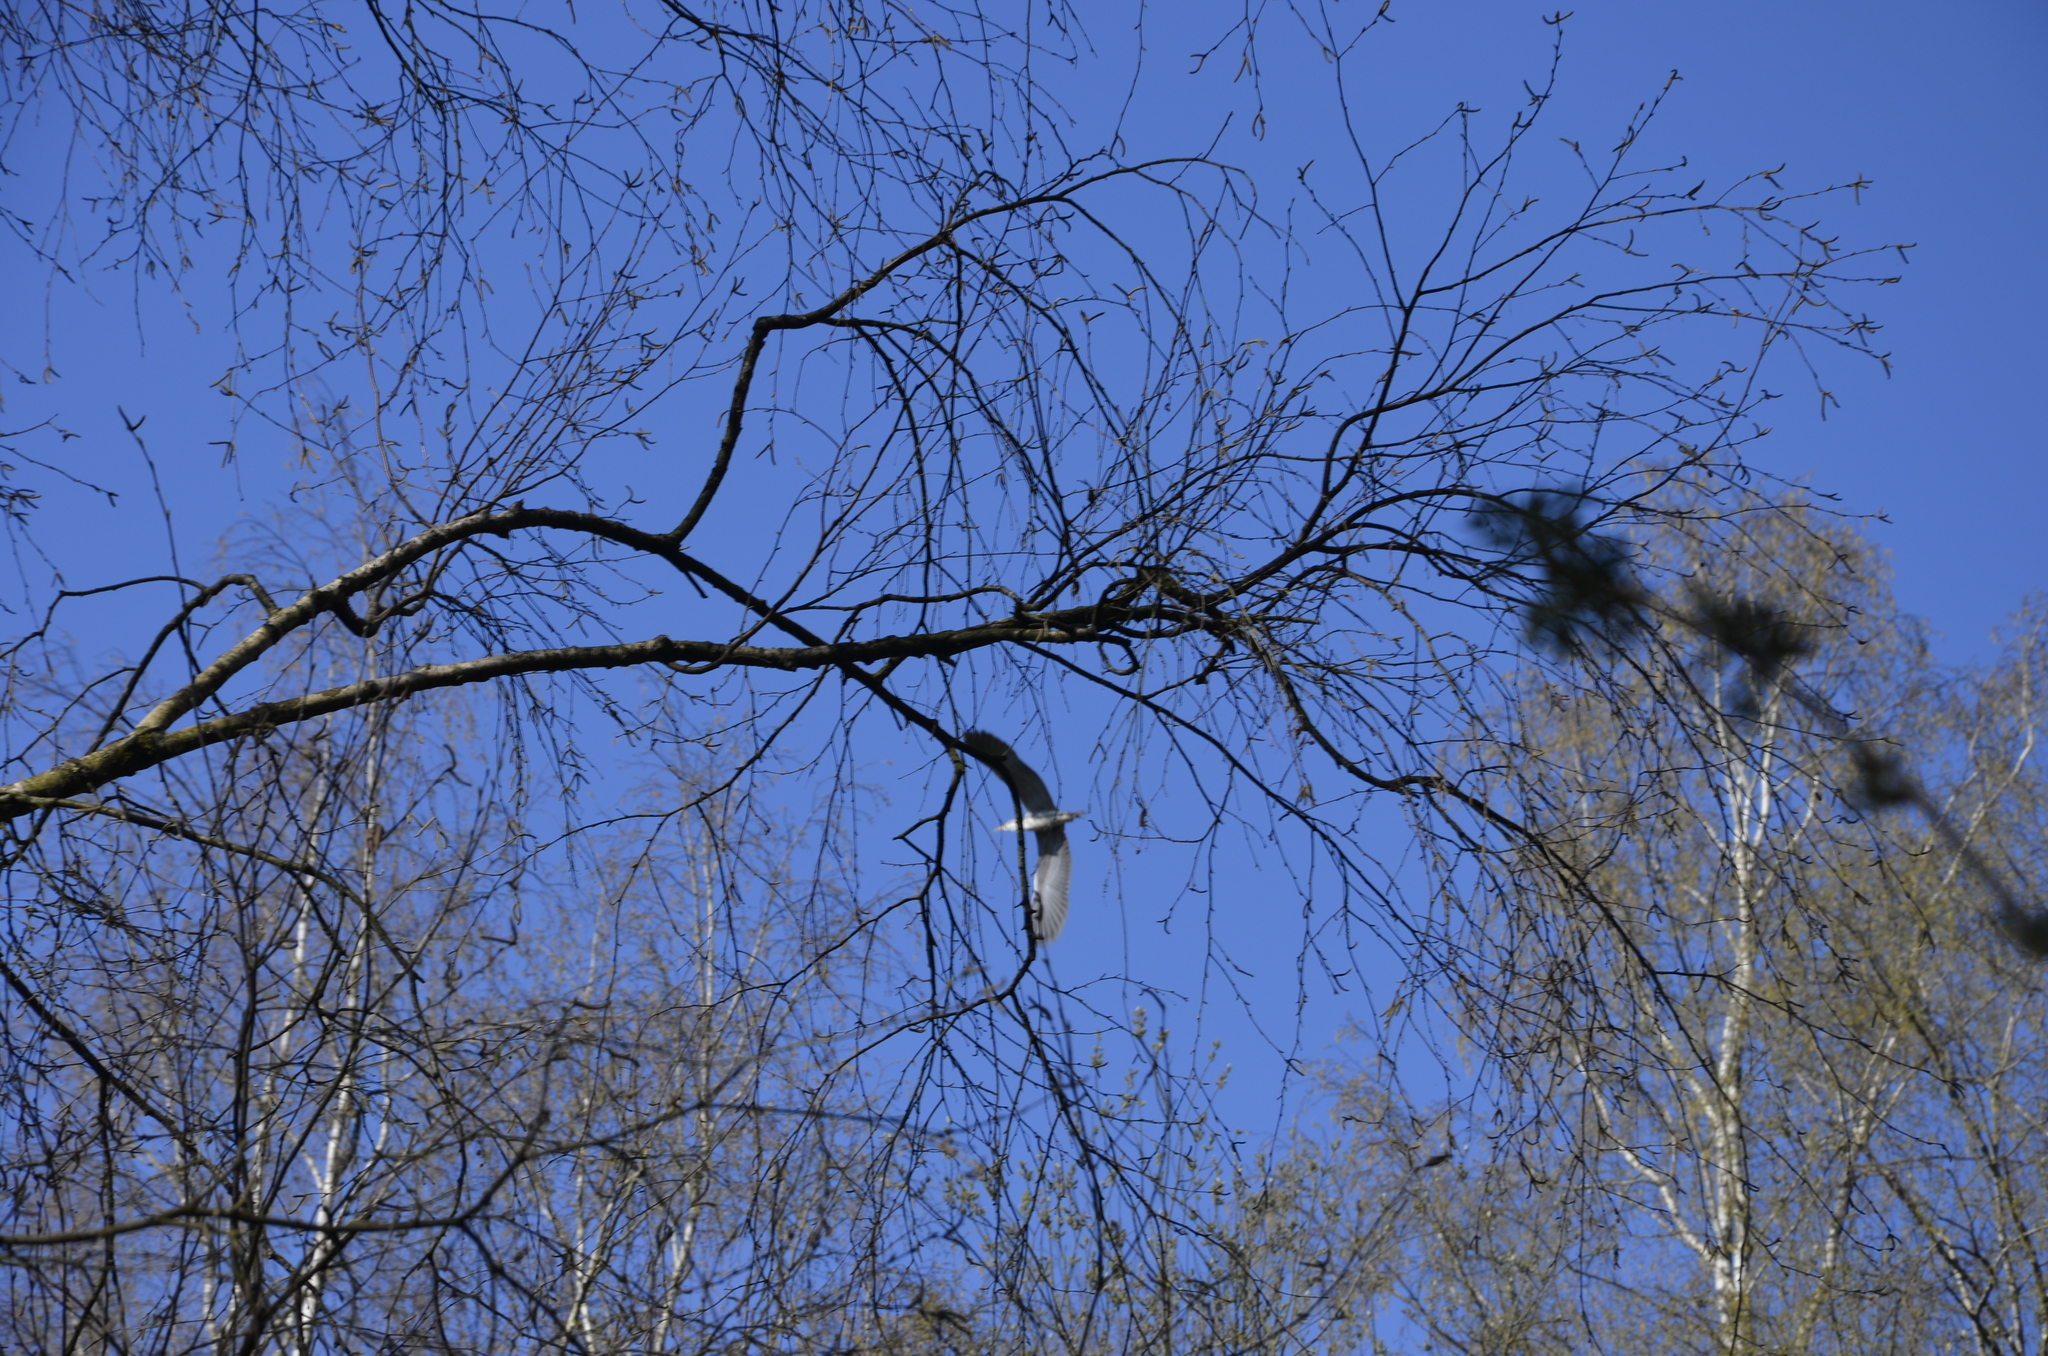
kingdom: Animalia
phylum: Chordata
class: Aves
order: Pelecaniformes
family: Ardeidae
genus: Ardea
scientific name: Ardea cinerea
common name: Grey heron
